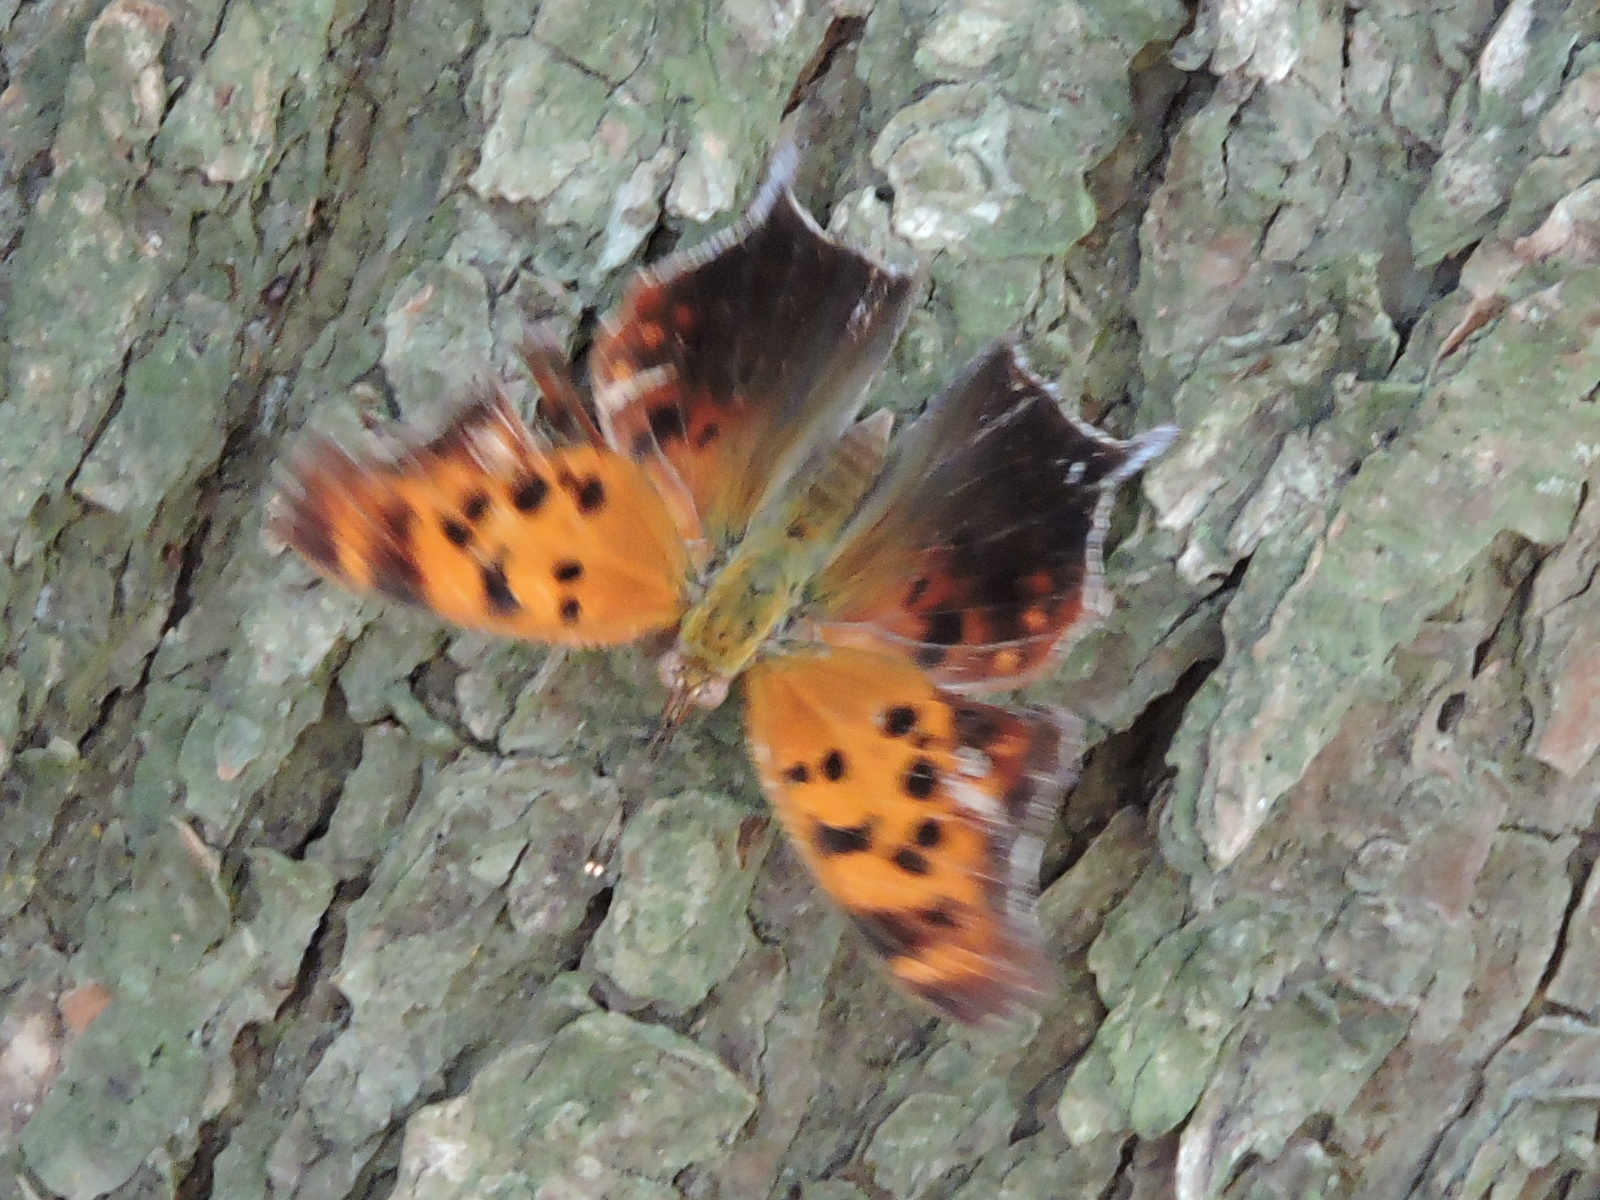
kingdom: Animalia
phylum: Arthropoda
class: Insecta
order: Lepidoptera
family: Nymphalidae
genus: Polygonia
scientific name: Polygonia interrogationis
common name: Question mark
